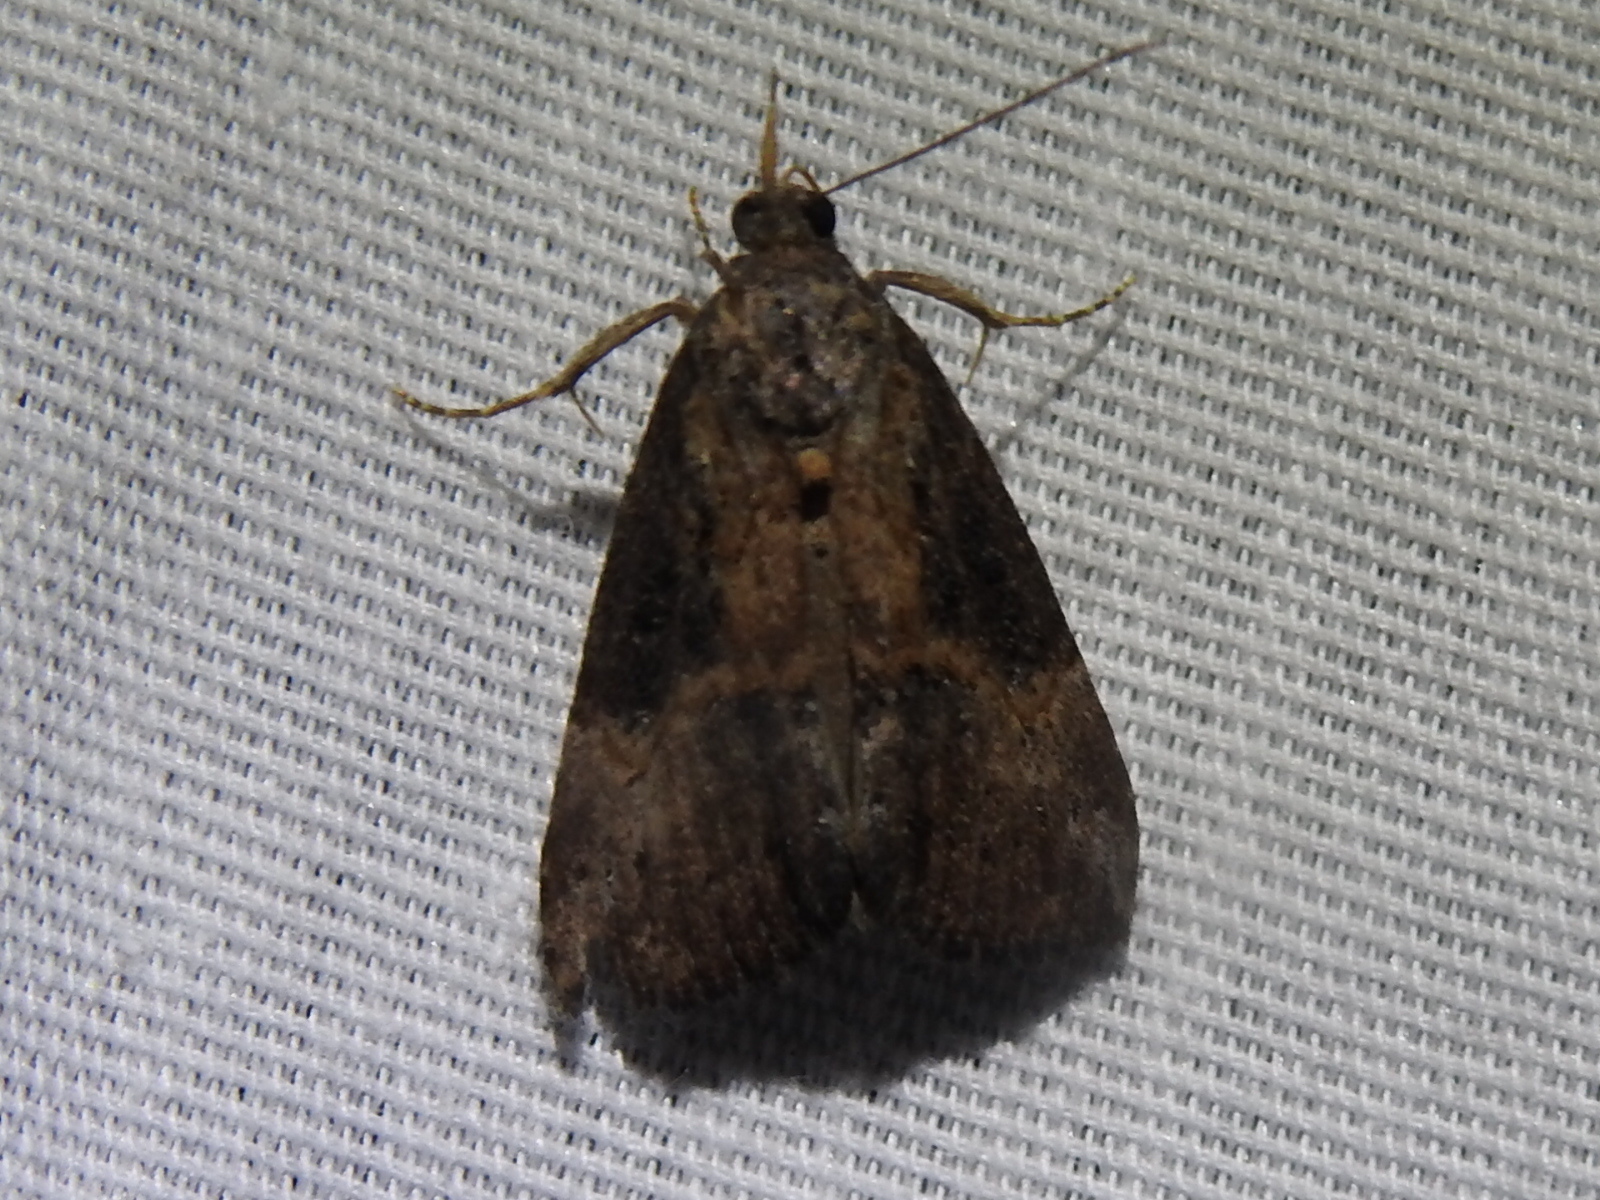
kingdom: Animalia
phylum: Arthropoda
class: Insecta
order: Lepidoptera
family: Erebidae
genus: Hypena
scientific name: Hypena scabra
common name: Green cloverworm
